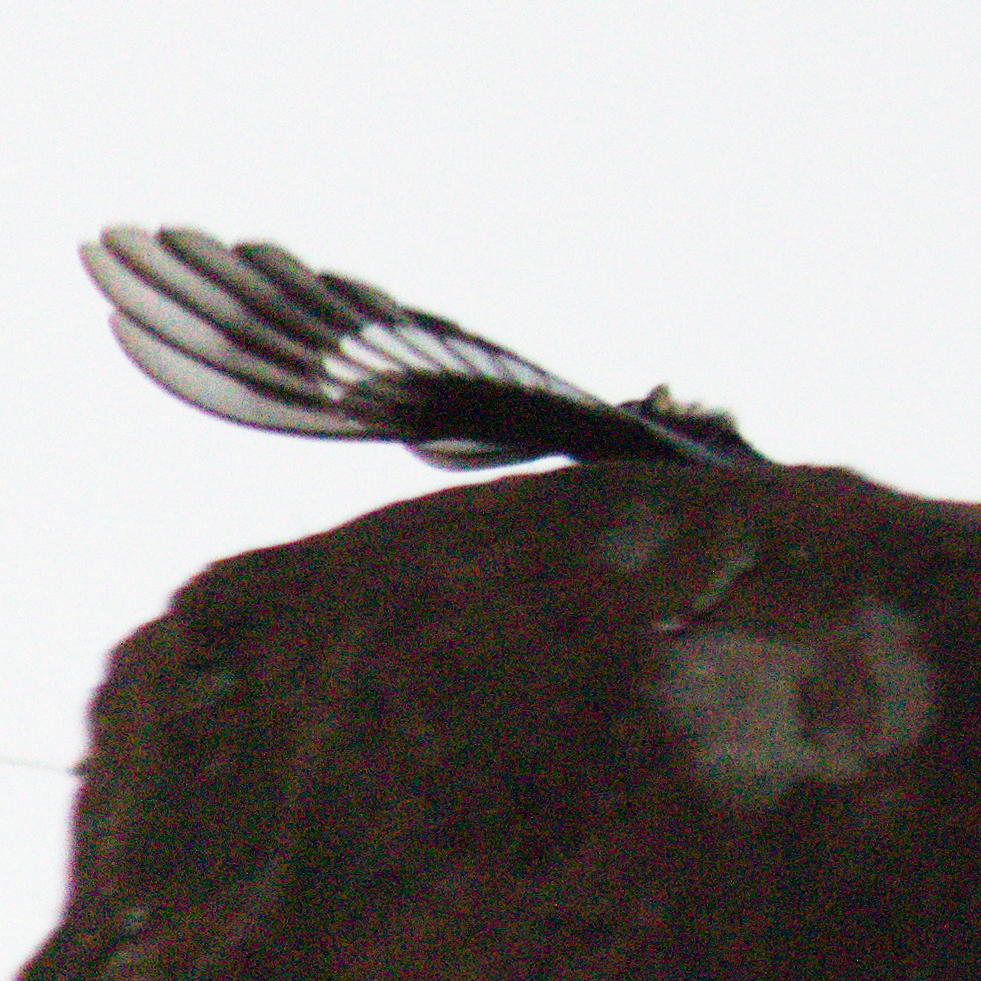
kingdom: Animalia
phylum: Chordata
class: Aves
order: Passeriformes
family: Tyrannidae
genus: Knipolegus
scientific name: Knipolegus lophotes
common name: Crested black tyrant
